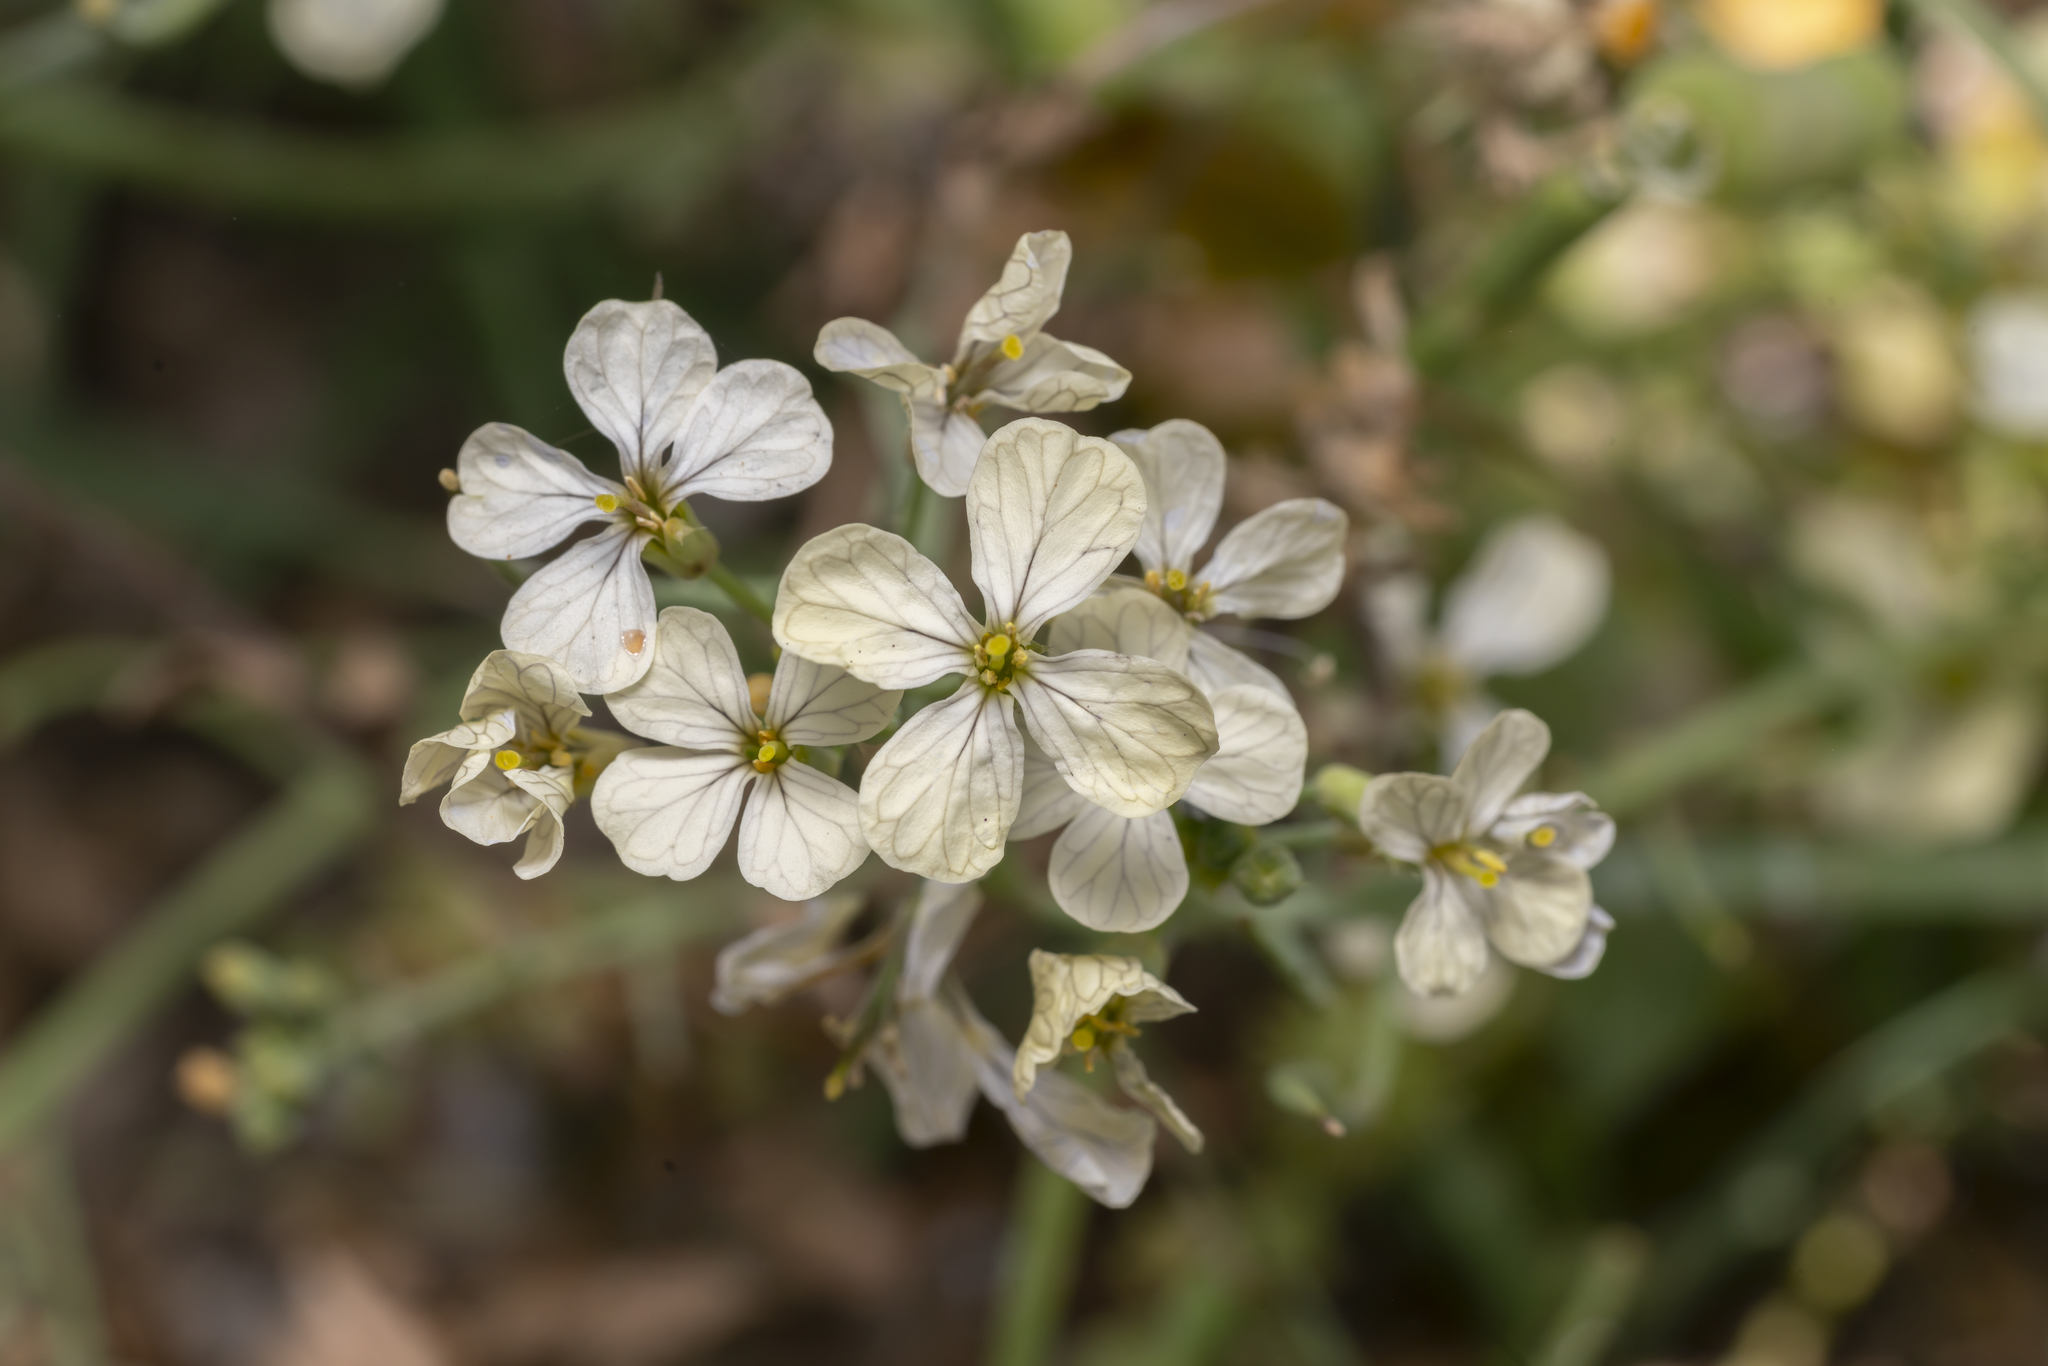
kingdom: Plantae
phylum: Tracheophyta
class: Magnoliopsida
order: Brassicales
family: Brassicaceae
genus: Raphanus
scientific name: Raphanus raphanistrum
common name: Wild radish
